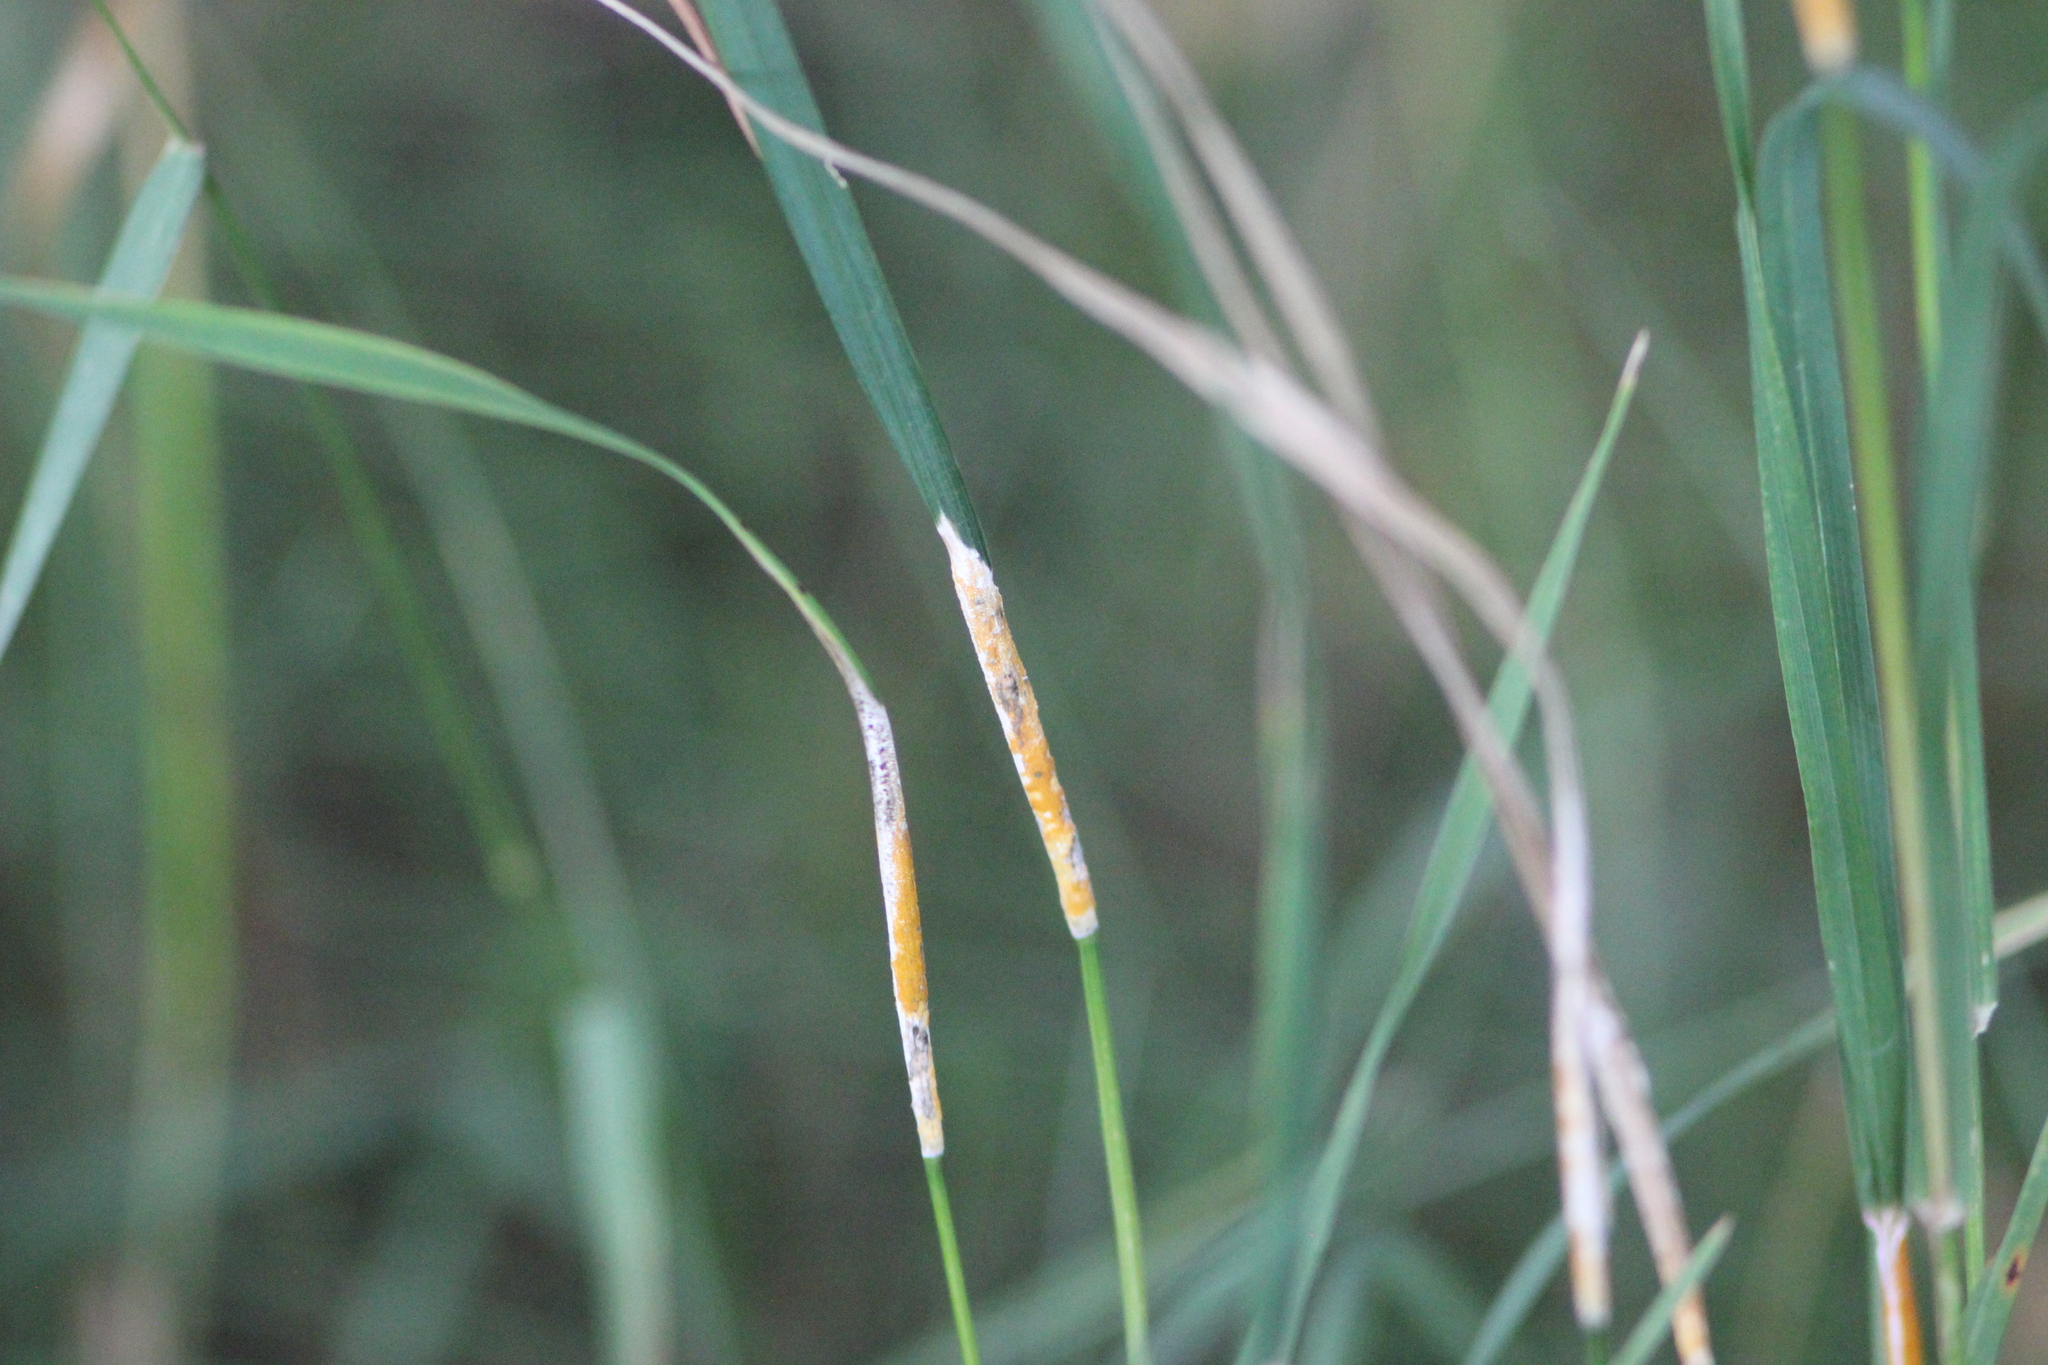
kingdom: Fungi
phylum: Ascomycota
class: Sordariomycetes
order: Hypocreales
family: Clavicipitaceae
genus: Epichloe
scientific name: Epichloe typhina
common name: Choke
